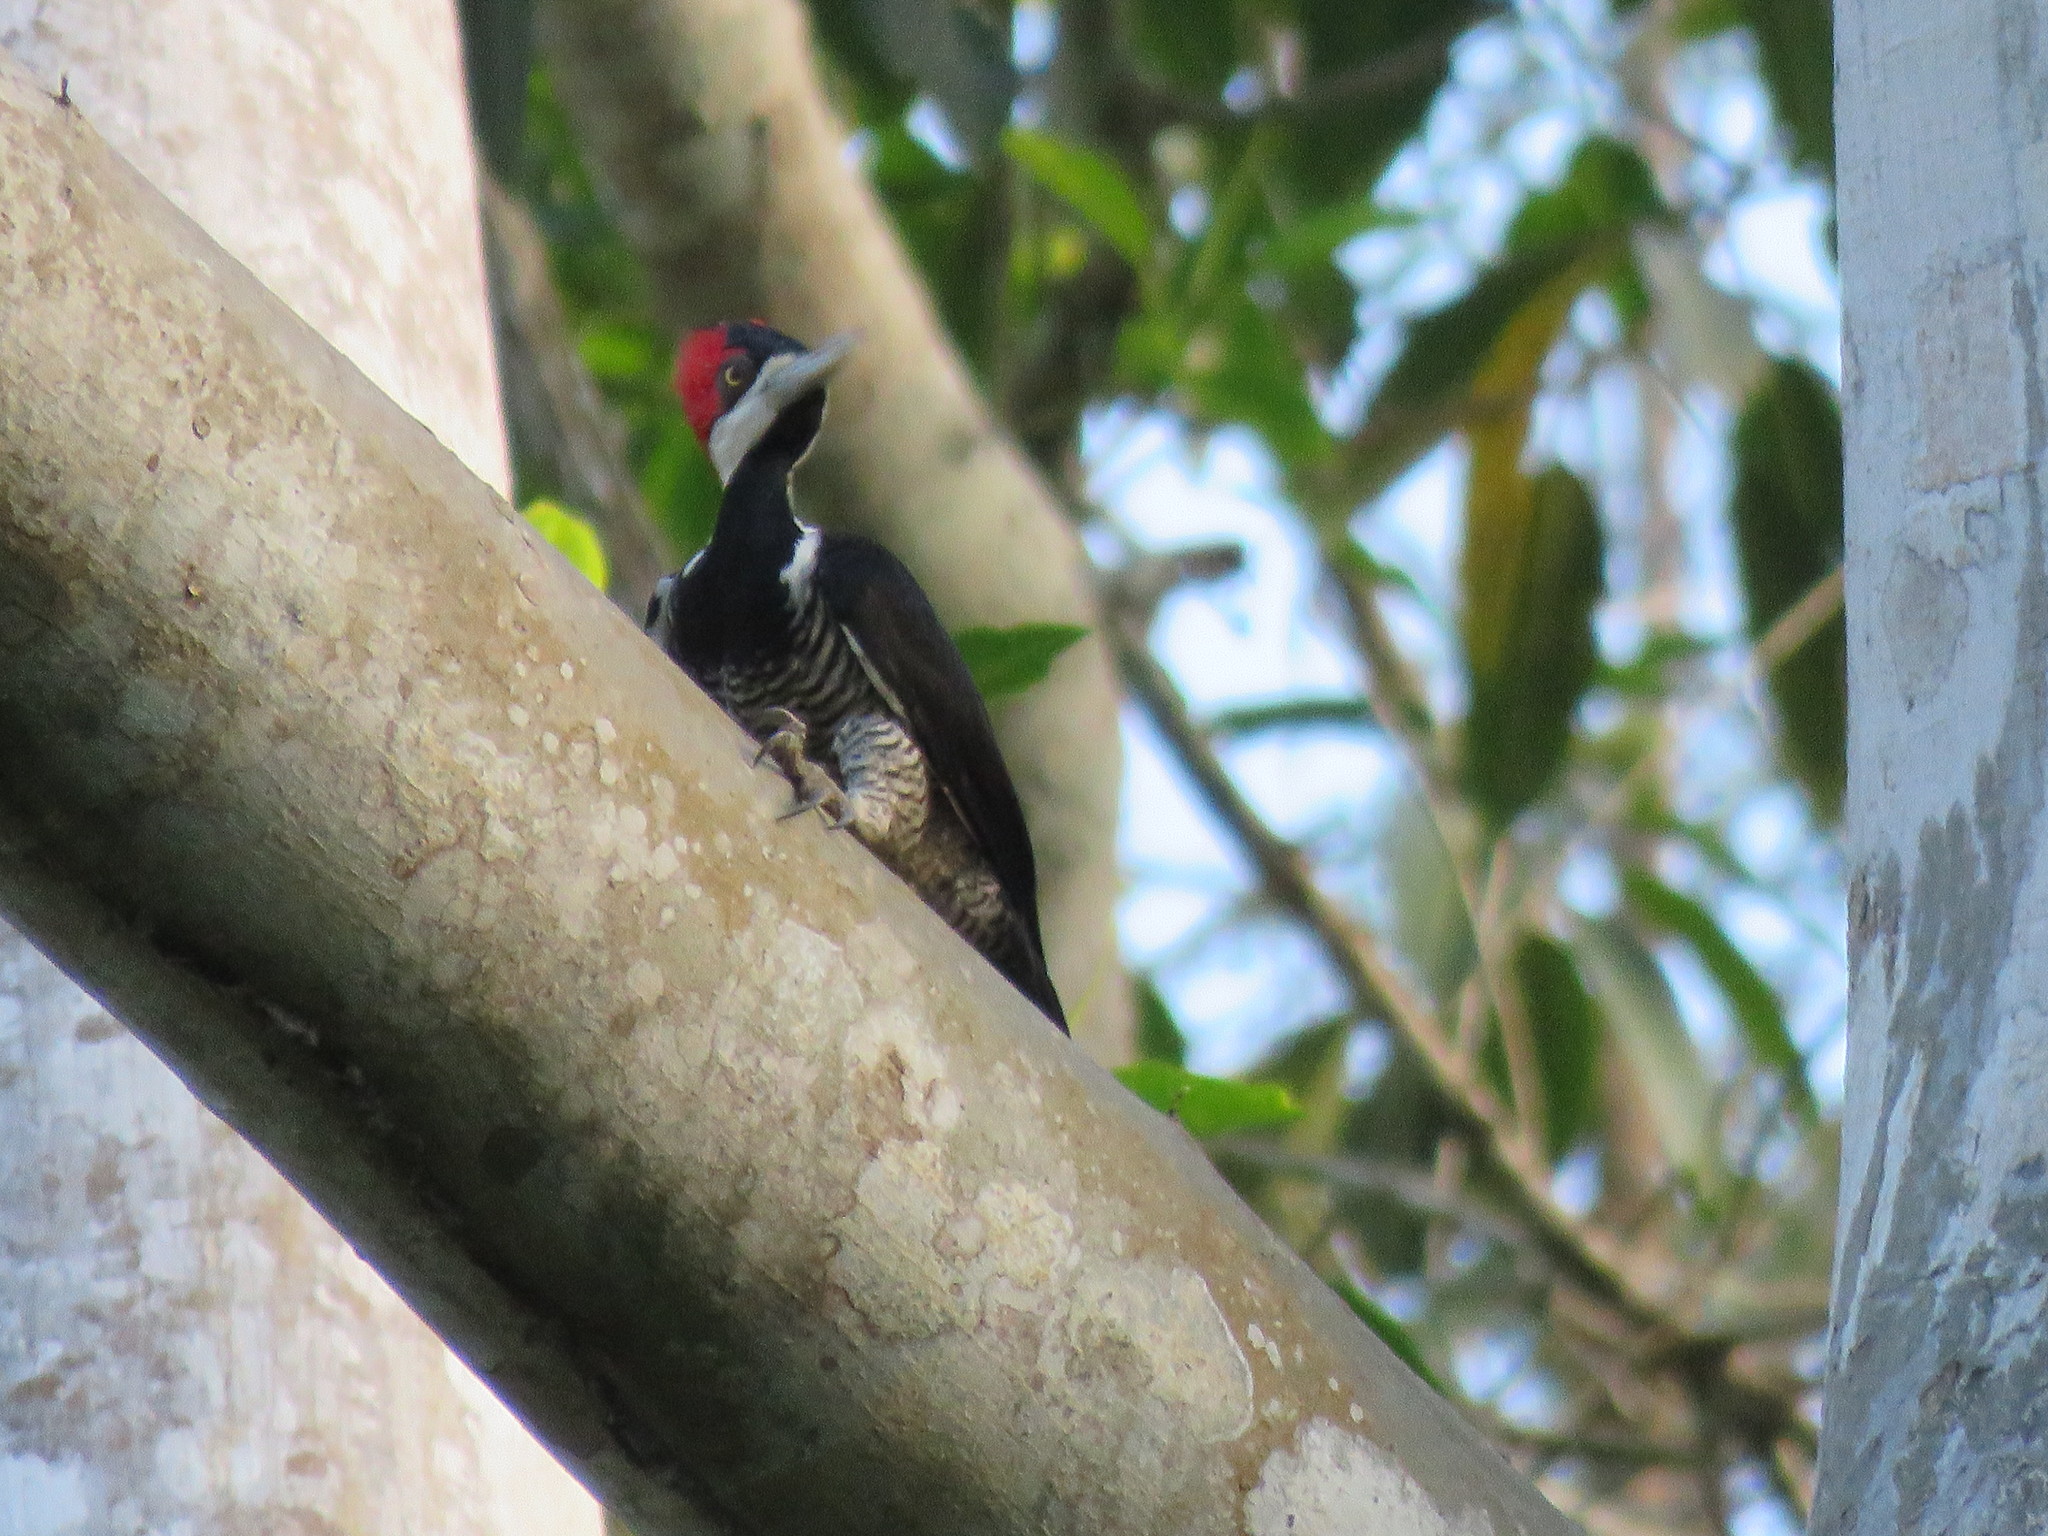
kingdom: Animalia
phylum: Chordata
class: Aves
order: Piciformes
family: Picidae
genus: Campephilus
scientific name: Campephilus melanoleucos
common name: Crimson-crested woodpecker
